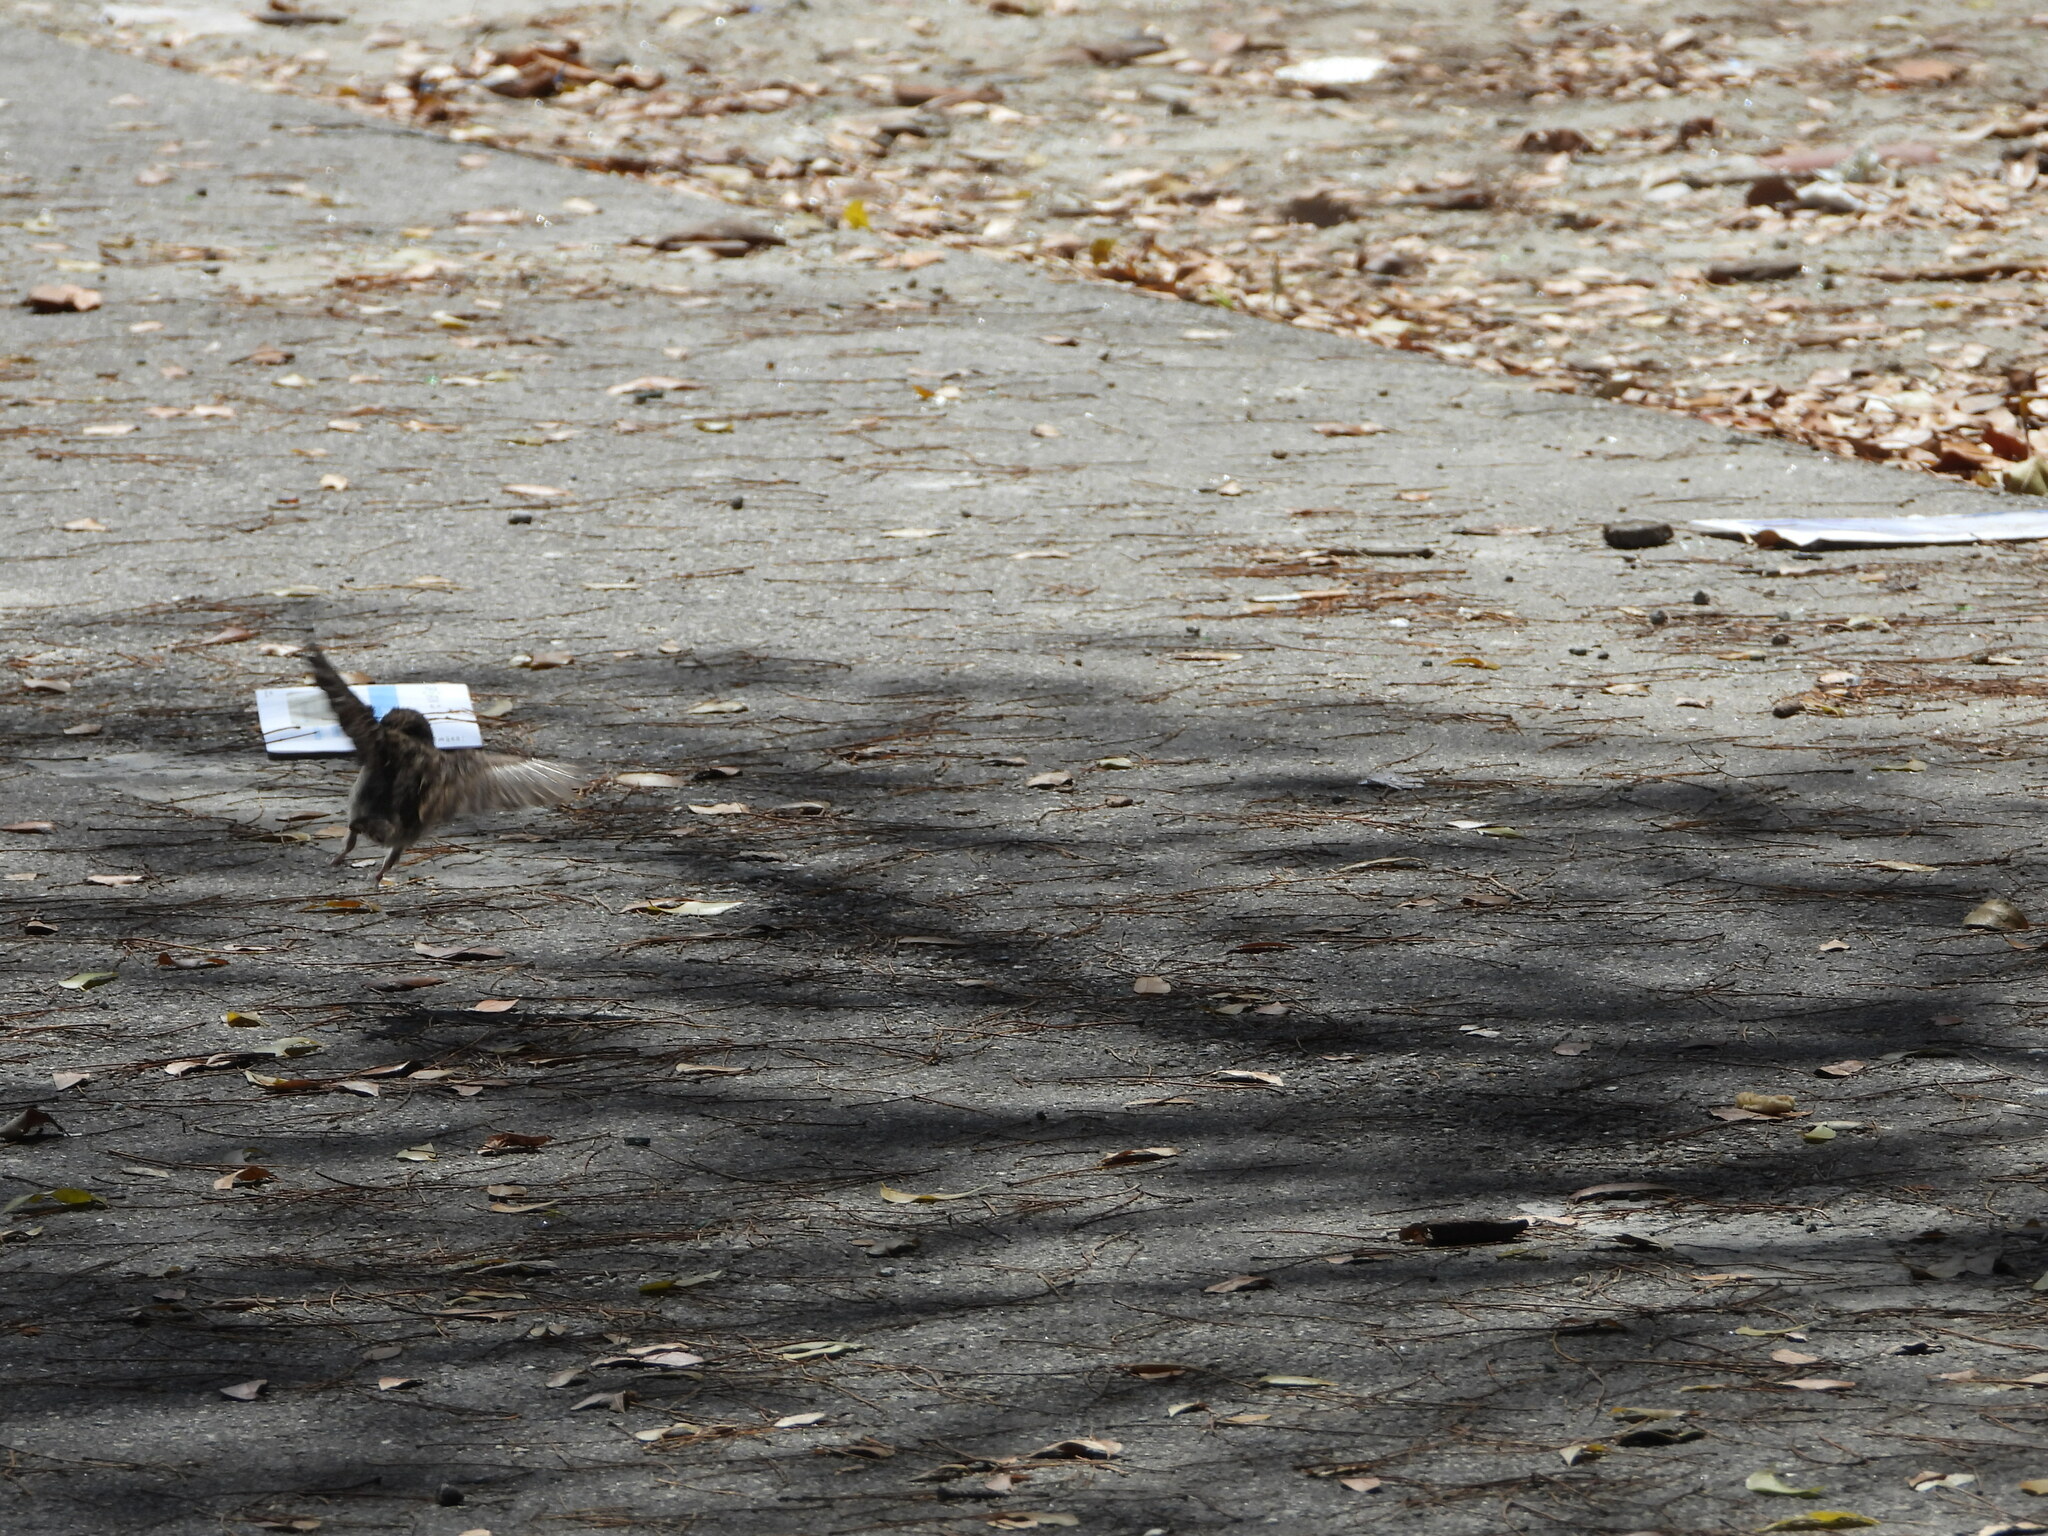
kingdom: Animalia
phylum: Chordata
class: Aves
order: Passeriformes
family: Passeridae
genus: Passer
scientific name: Passer domesticus
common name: House sparrow
